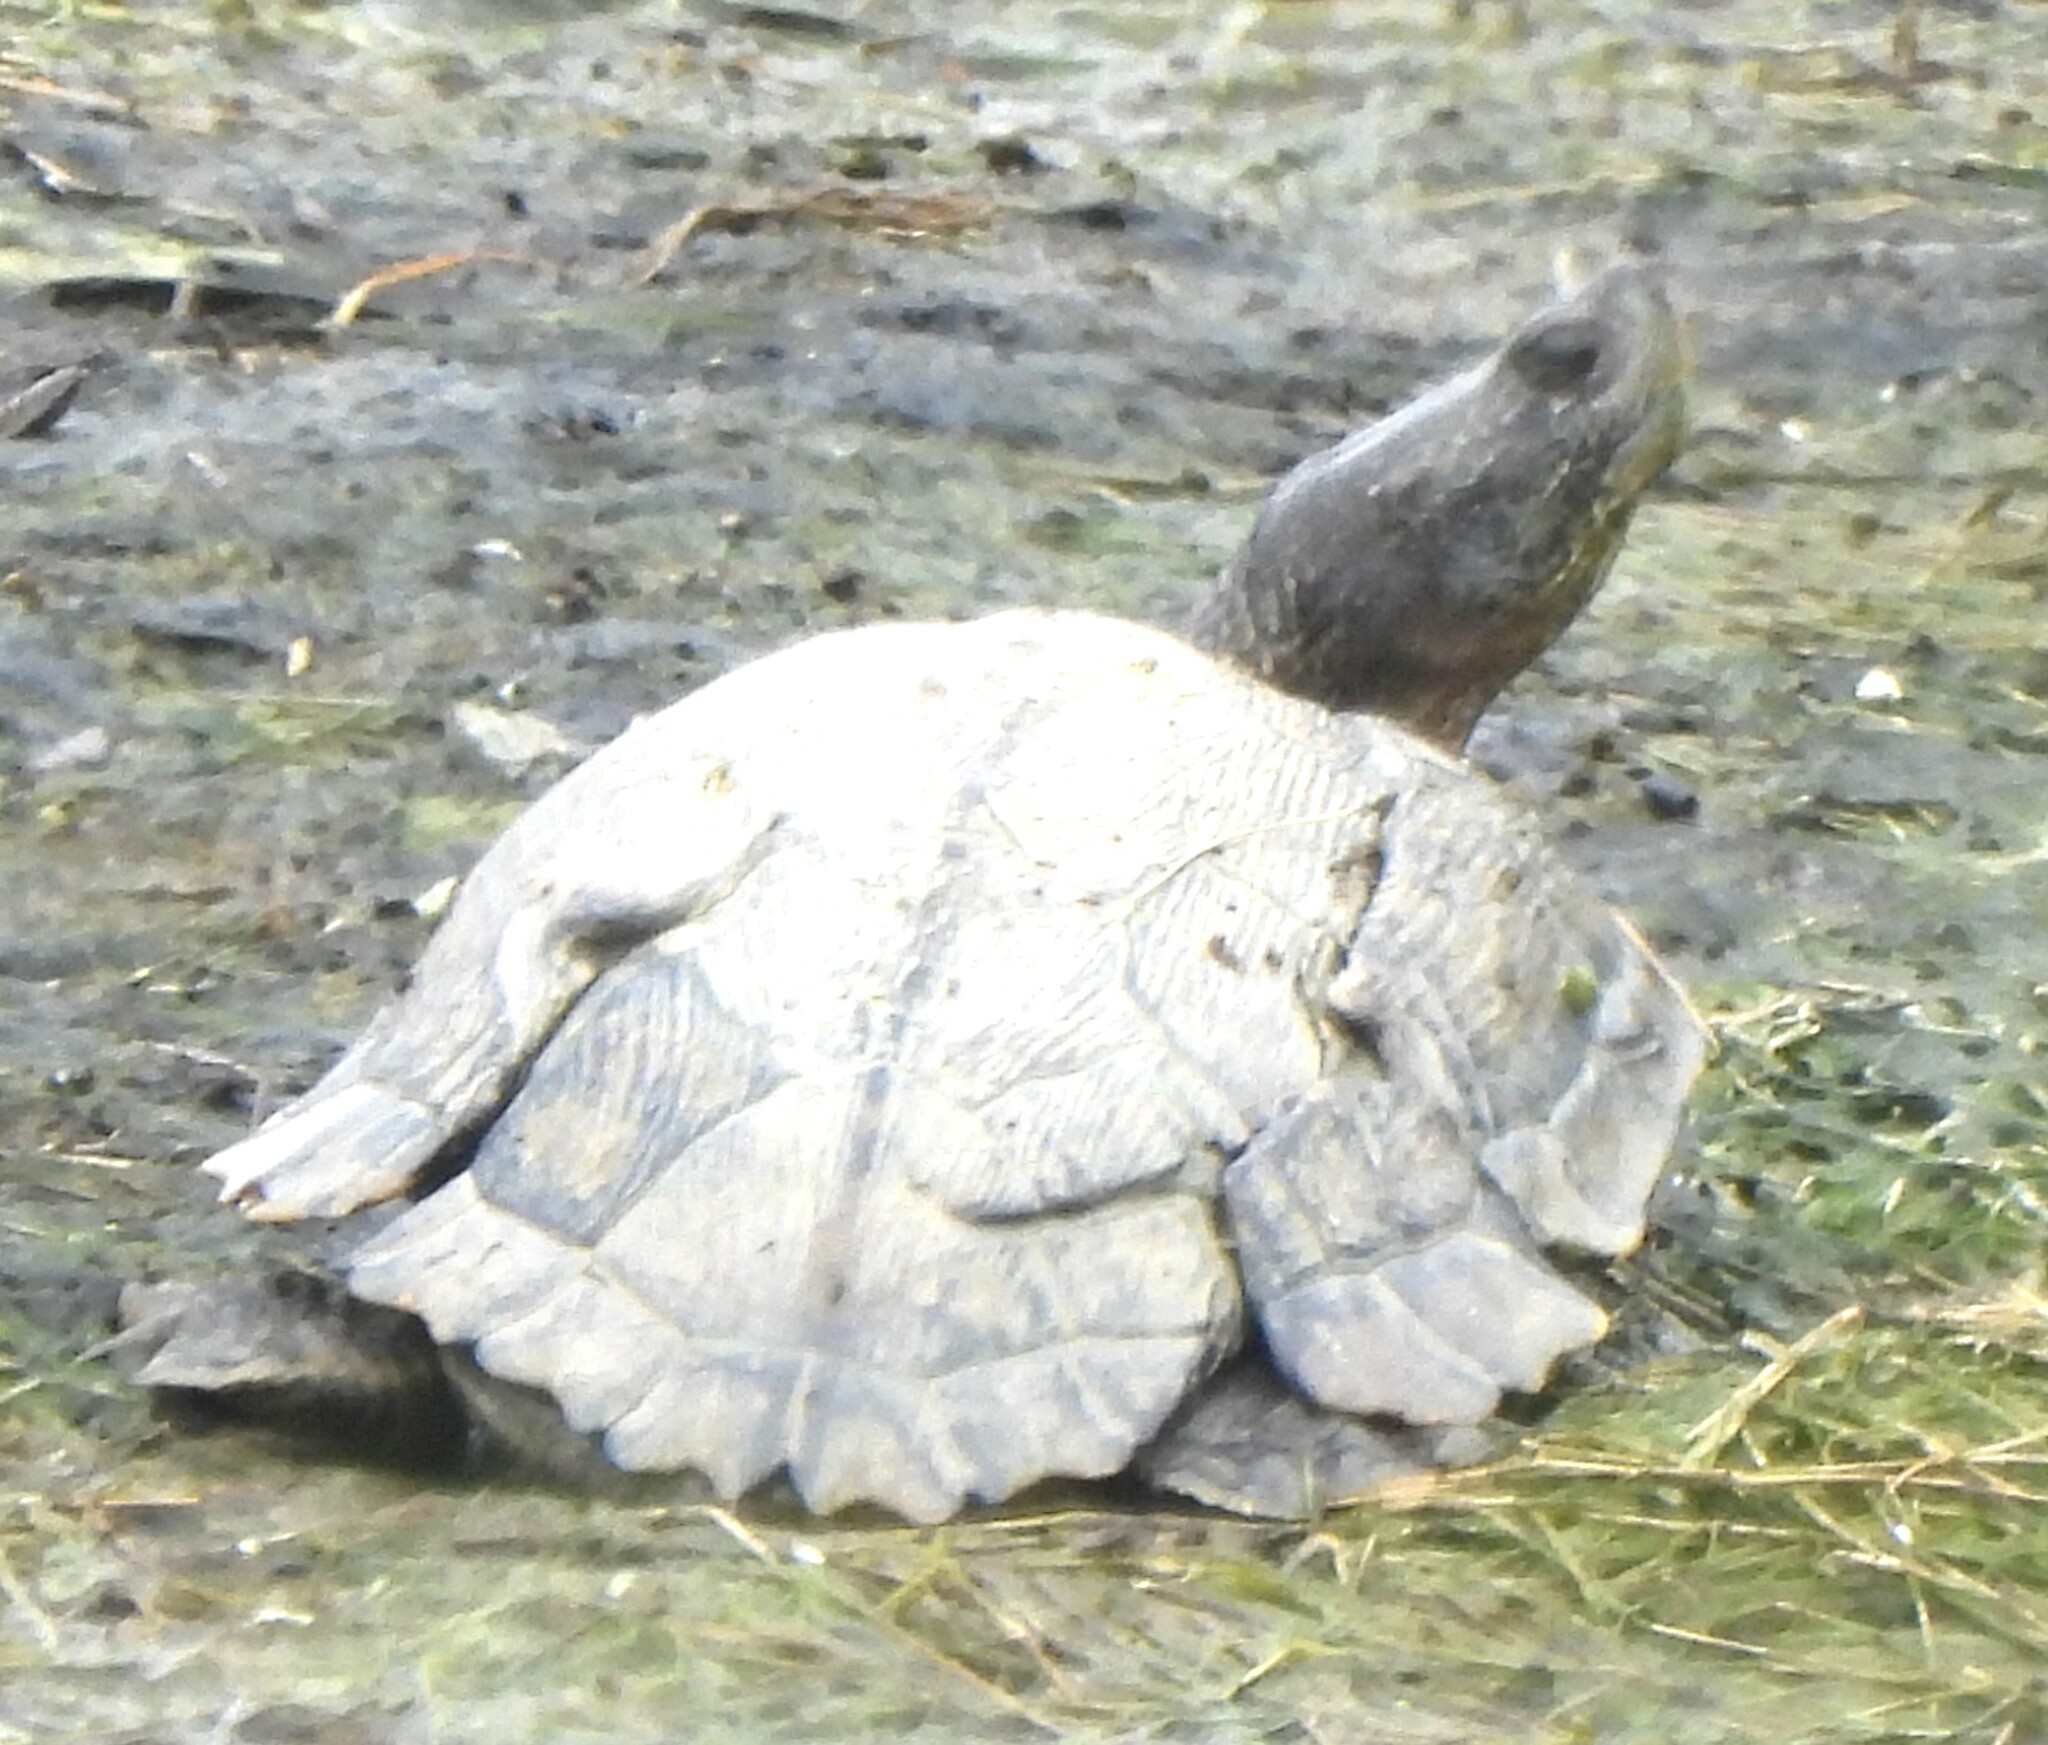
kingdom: Animalia
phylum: Chordata
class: Testudines
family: Emydidae
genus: Trachemys
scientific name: Trachemys scripta
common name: Slider
